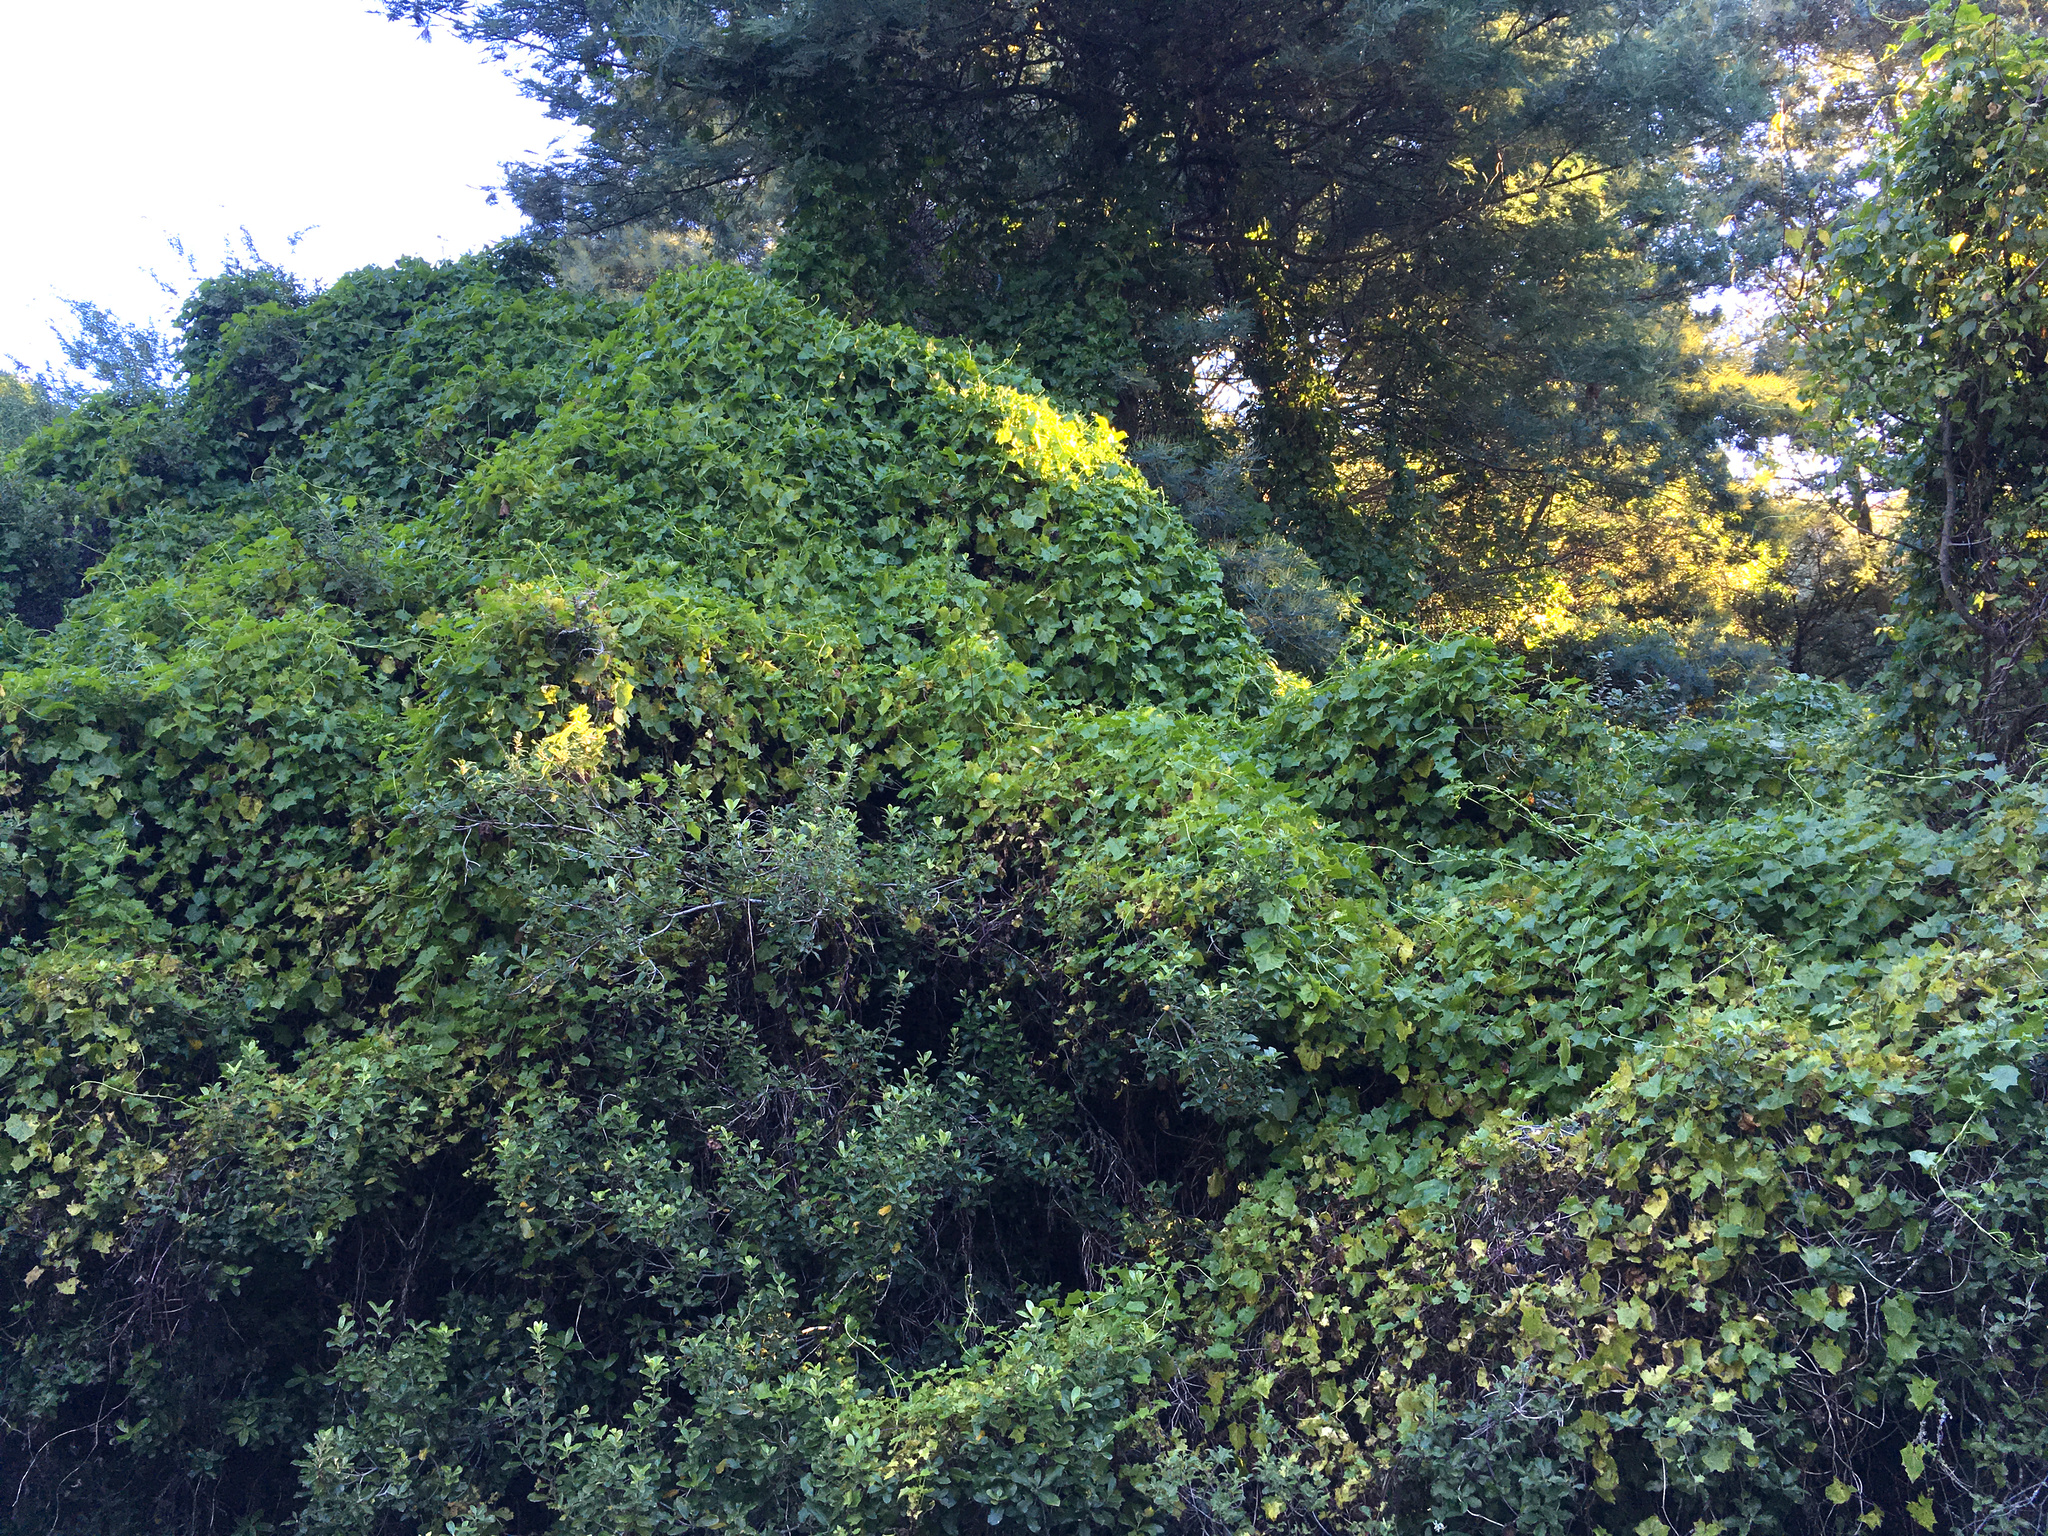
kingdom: Plantae
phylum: Tracheophyta
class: Magnoliopsida
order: Asterales
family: Asteraceae
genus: Delairea
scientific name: Delairea odorata
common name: Cape-ivy
